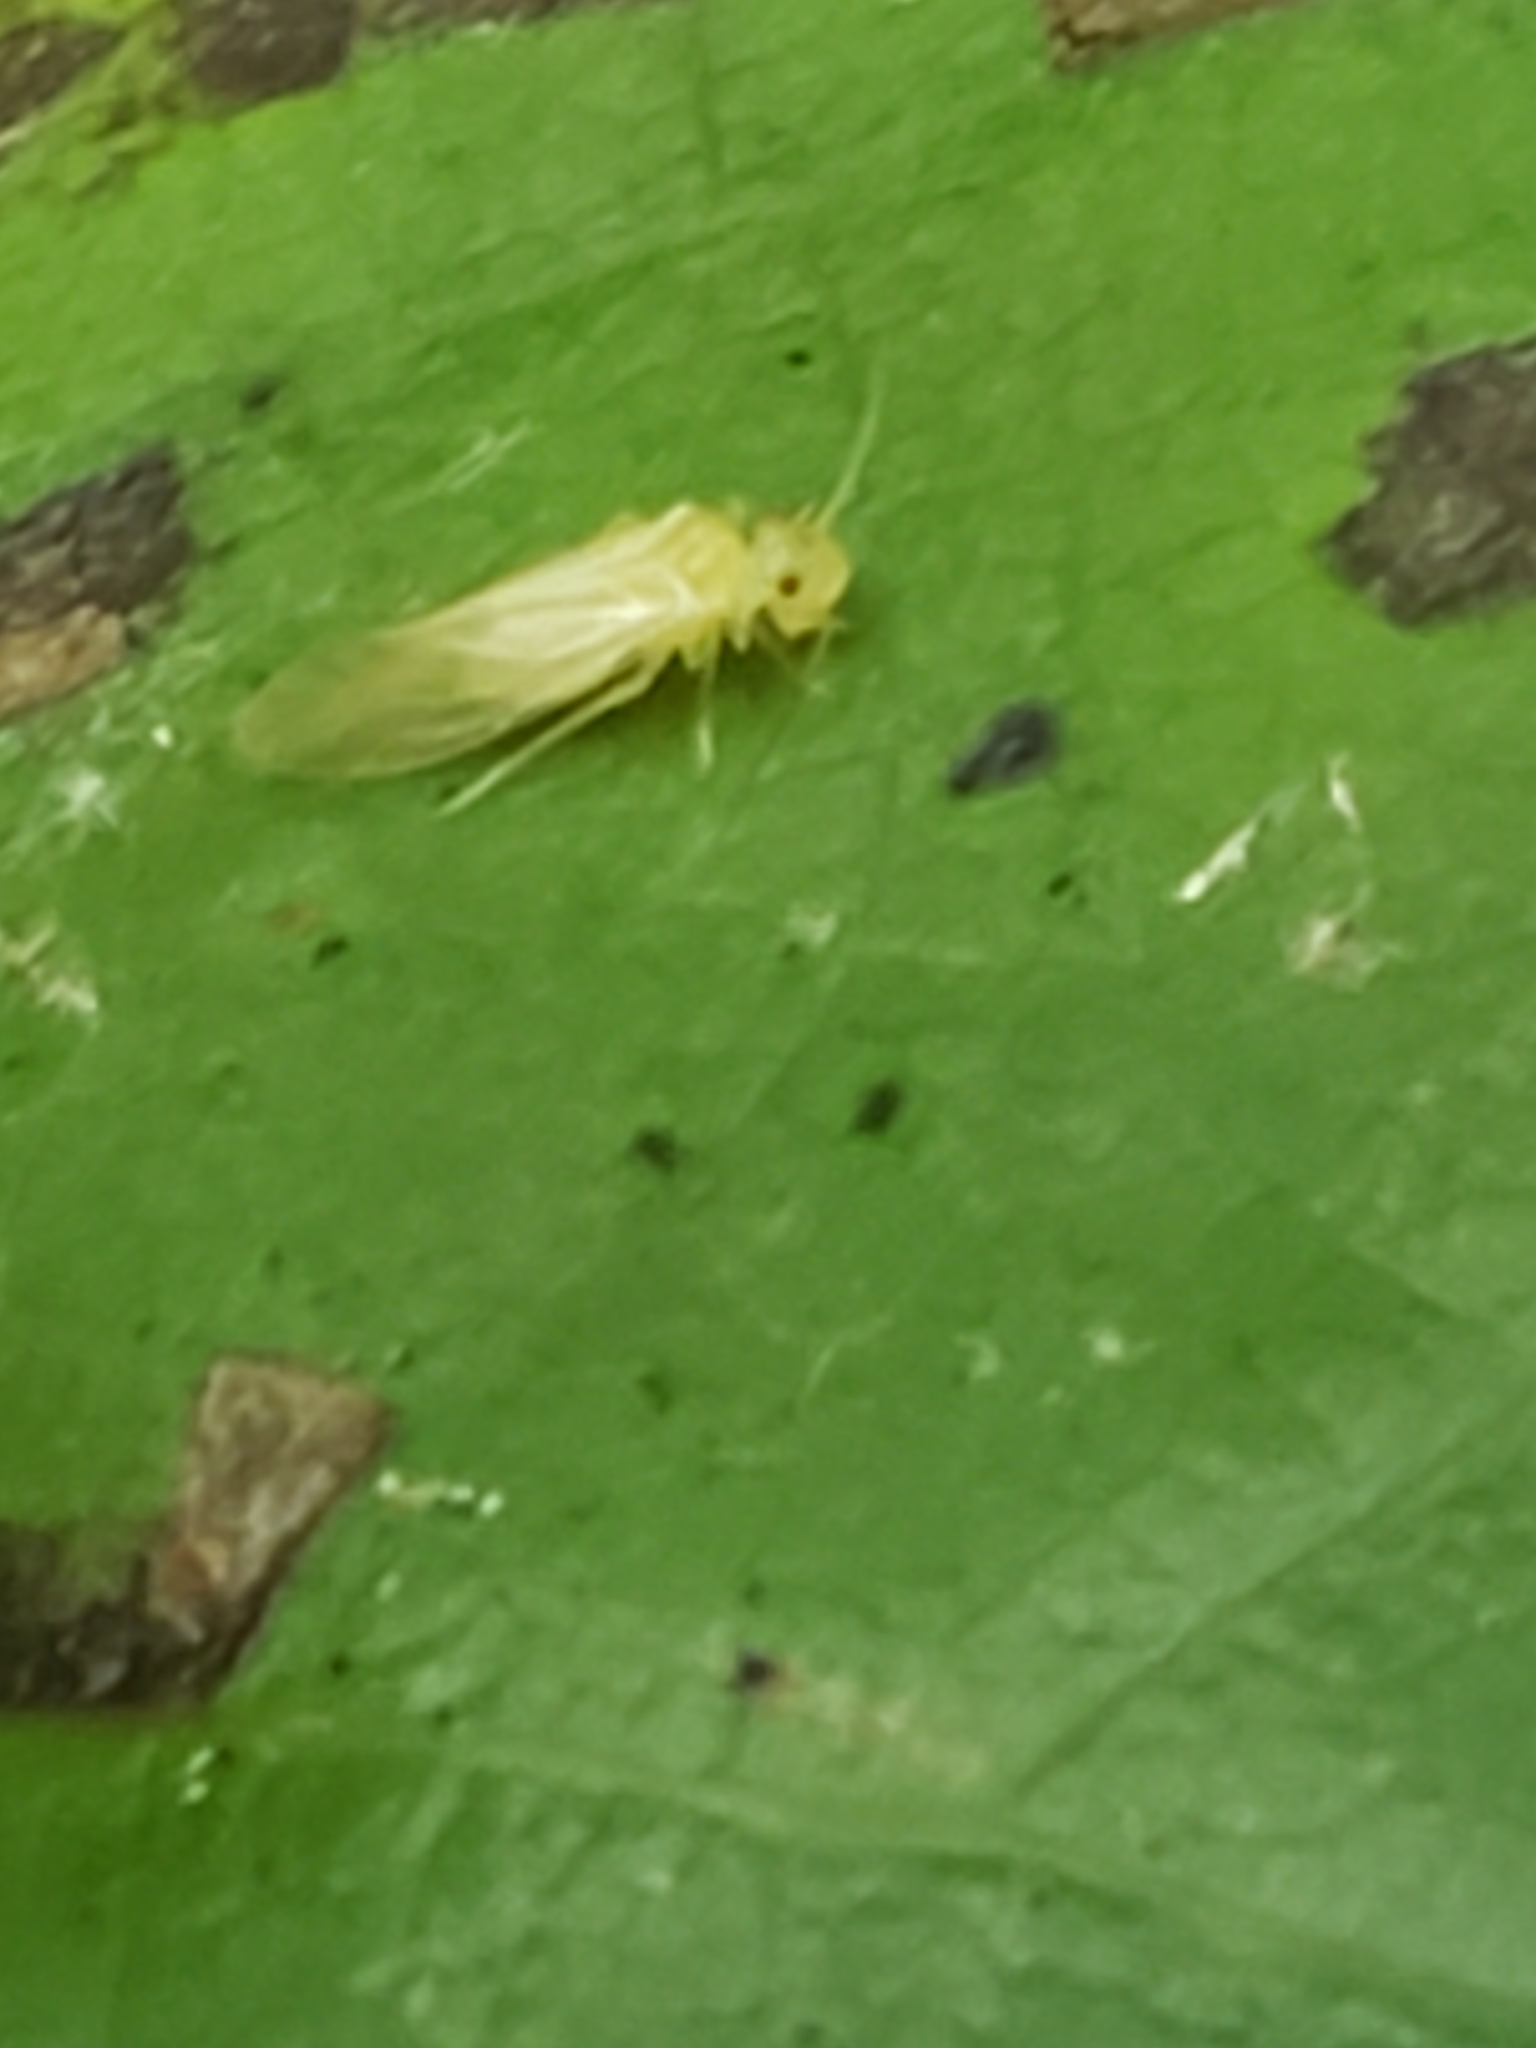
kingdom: Animalia
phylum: Arthropoda
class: Insecta
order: Psocodea
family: Caeciliusidae
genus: Valenzuela
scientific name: Valenzuela flavidus
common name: Yellow barklouse
